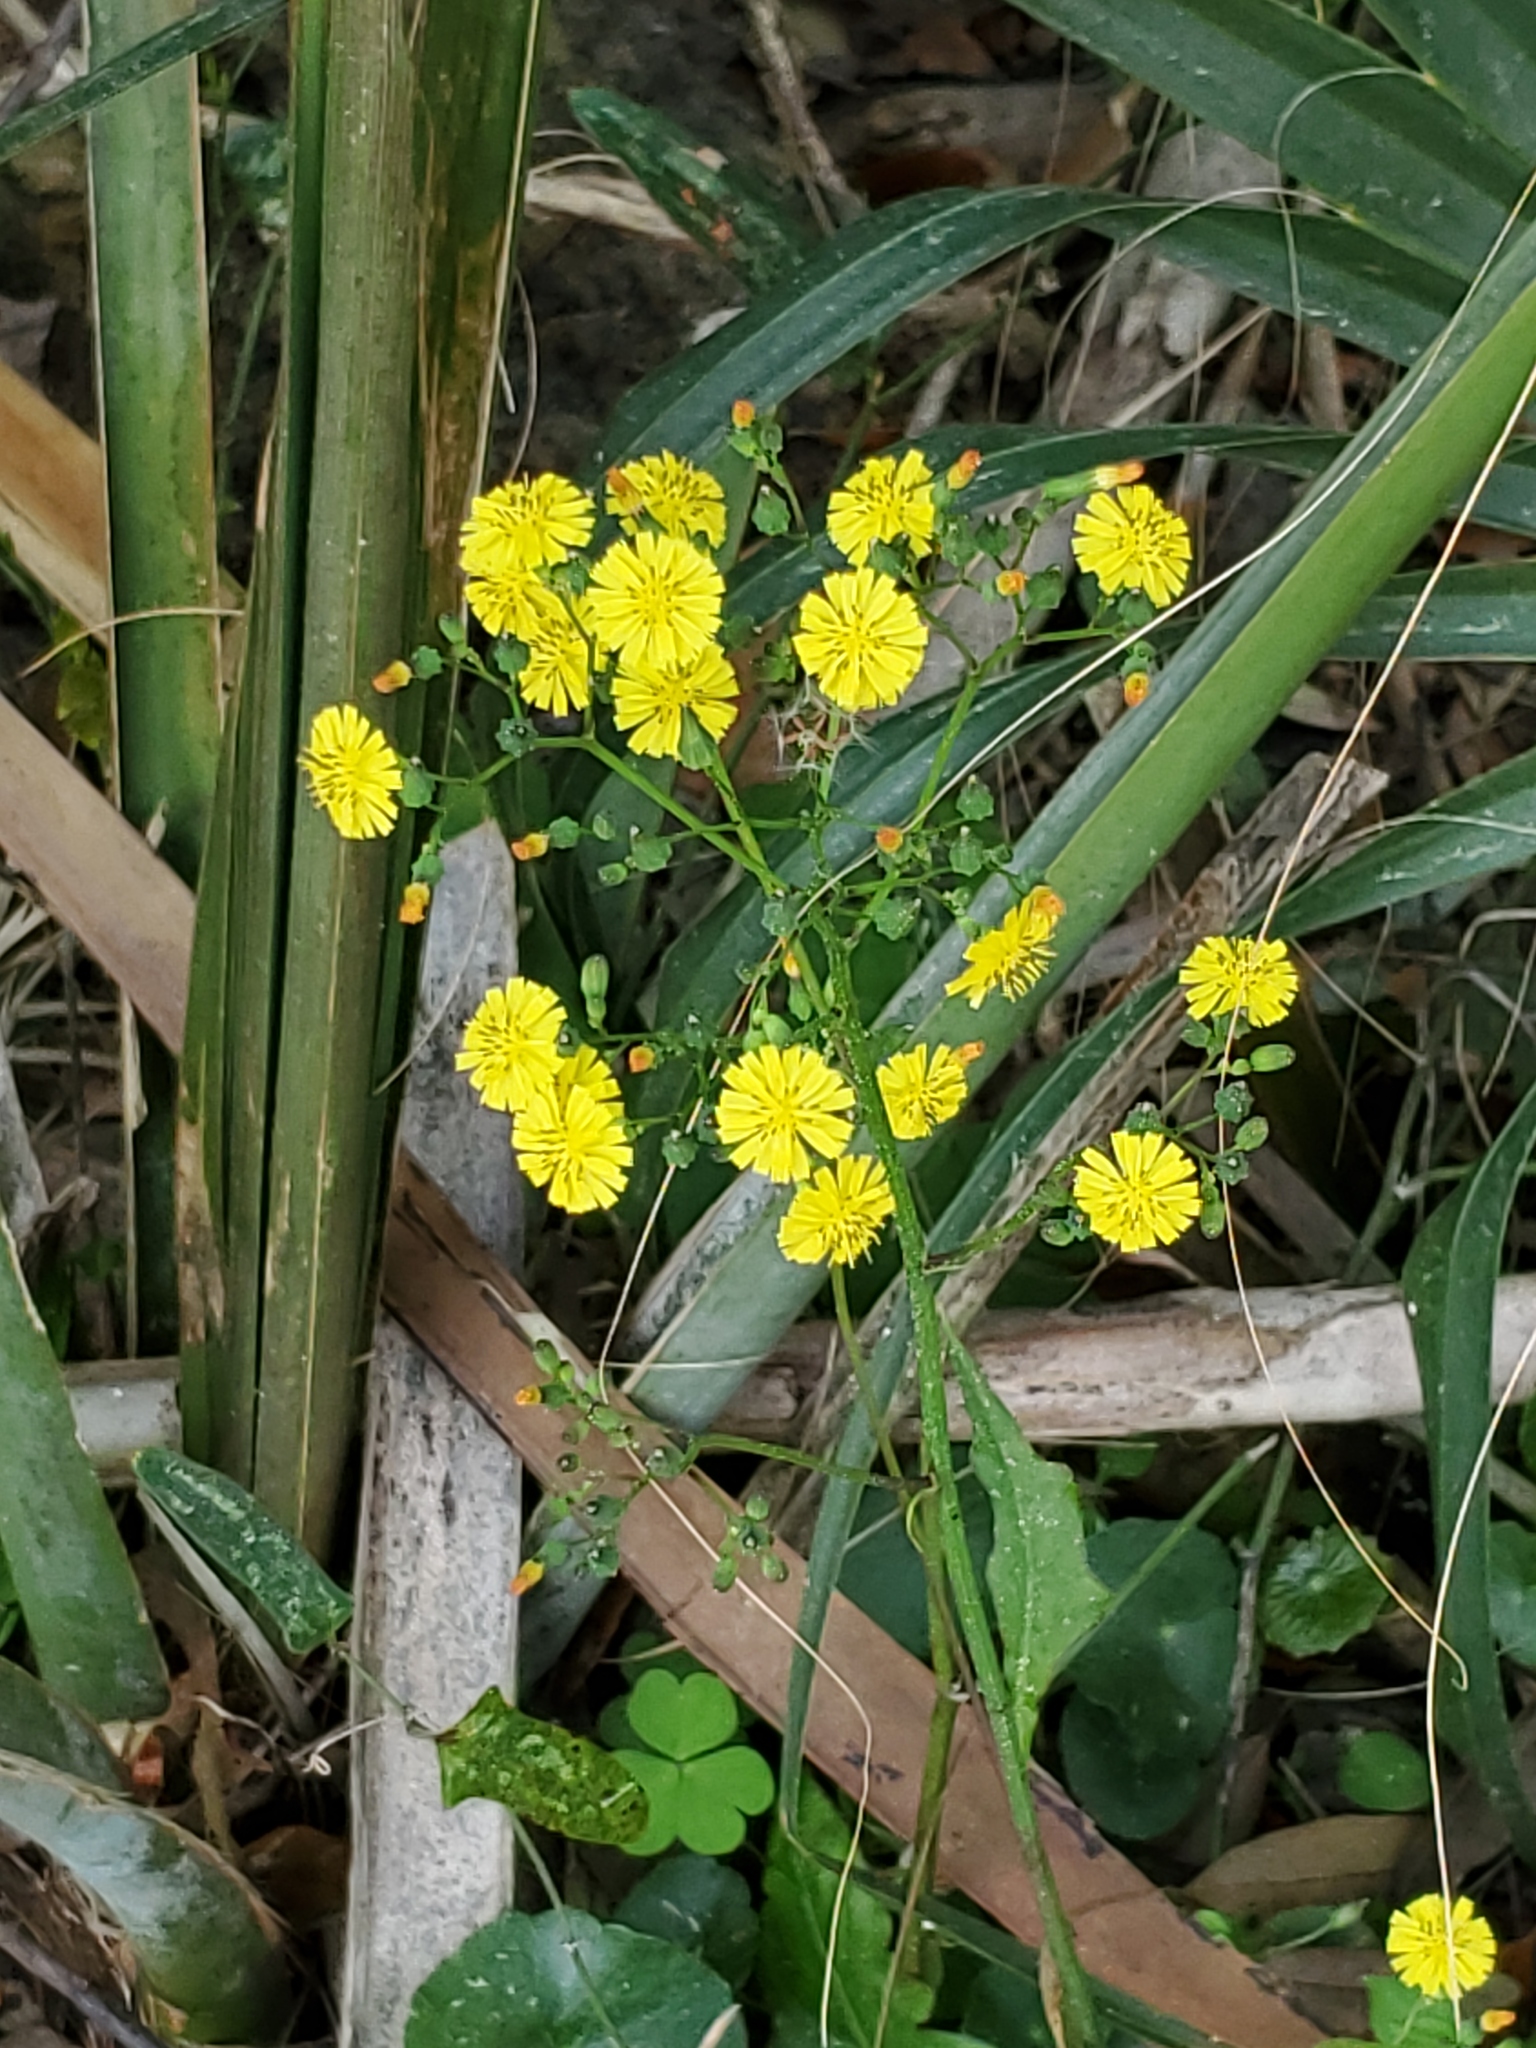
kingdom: Plantae
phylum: Tracheophyta
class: Magnoliopsida
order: Asterales
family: Asteraceae
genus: Youngia
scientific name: Youngia japonica
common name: Oriental false hawksbeard
